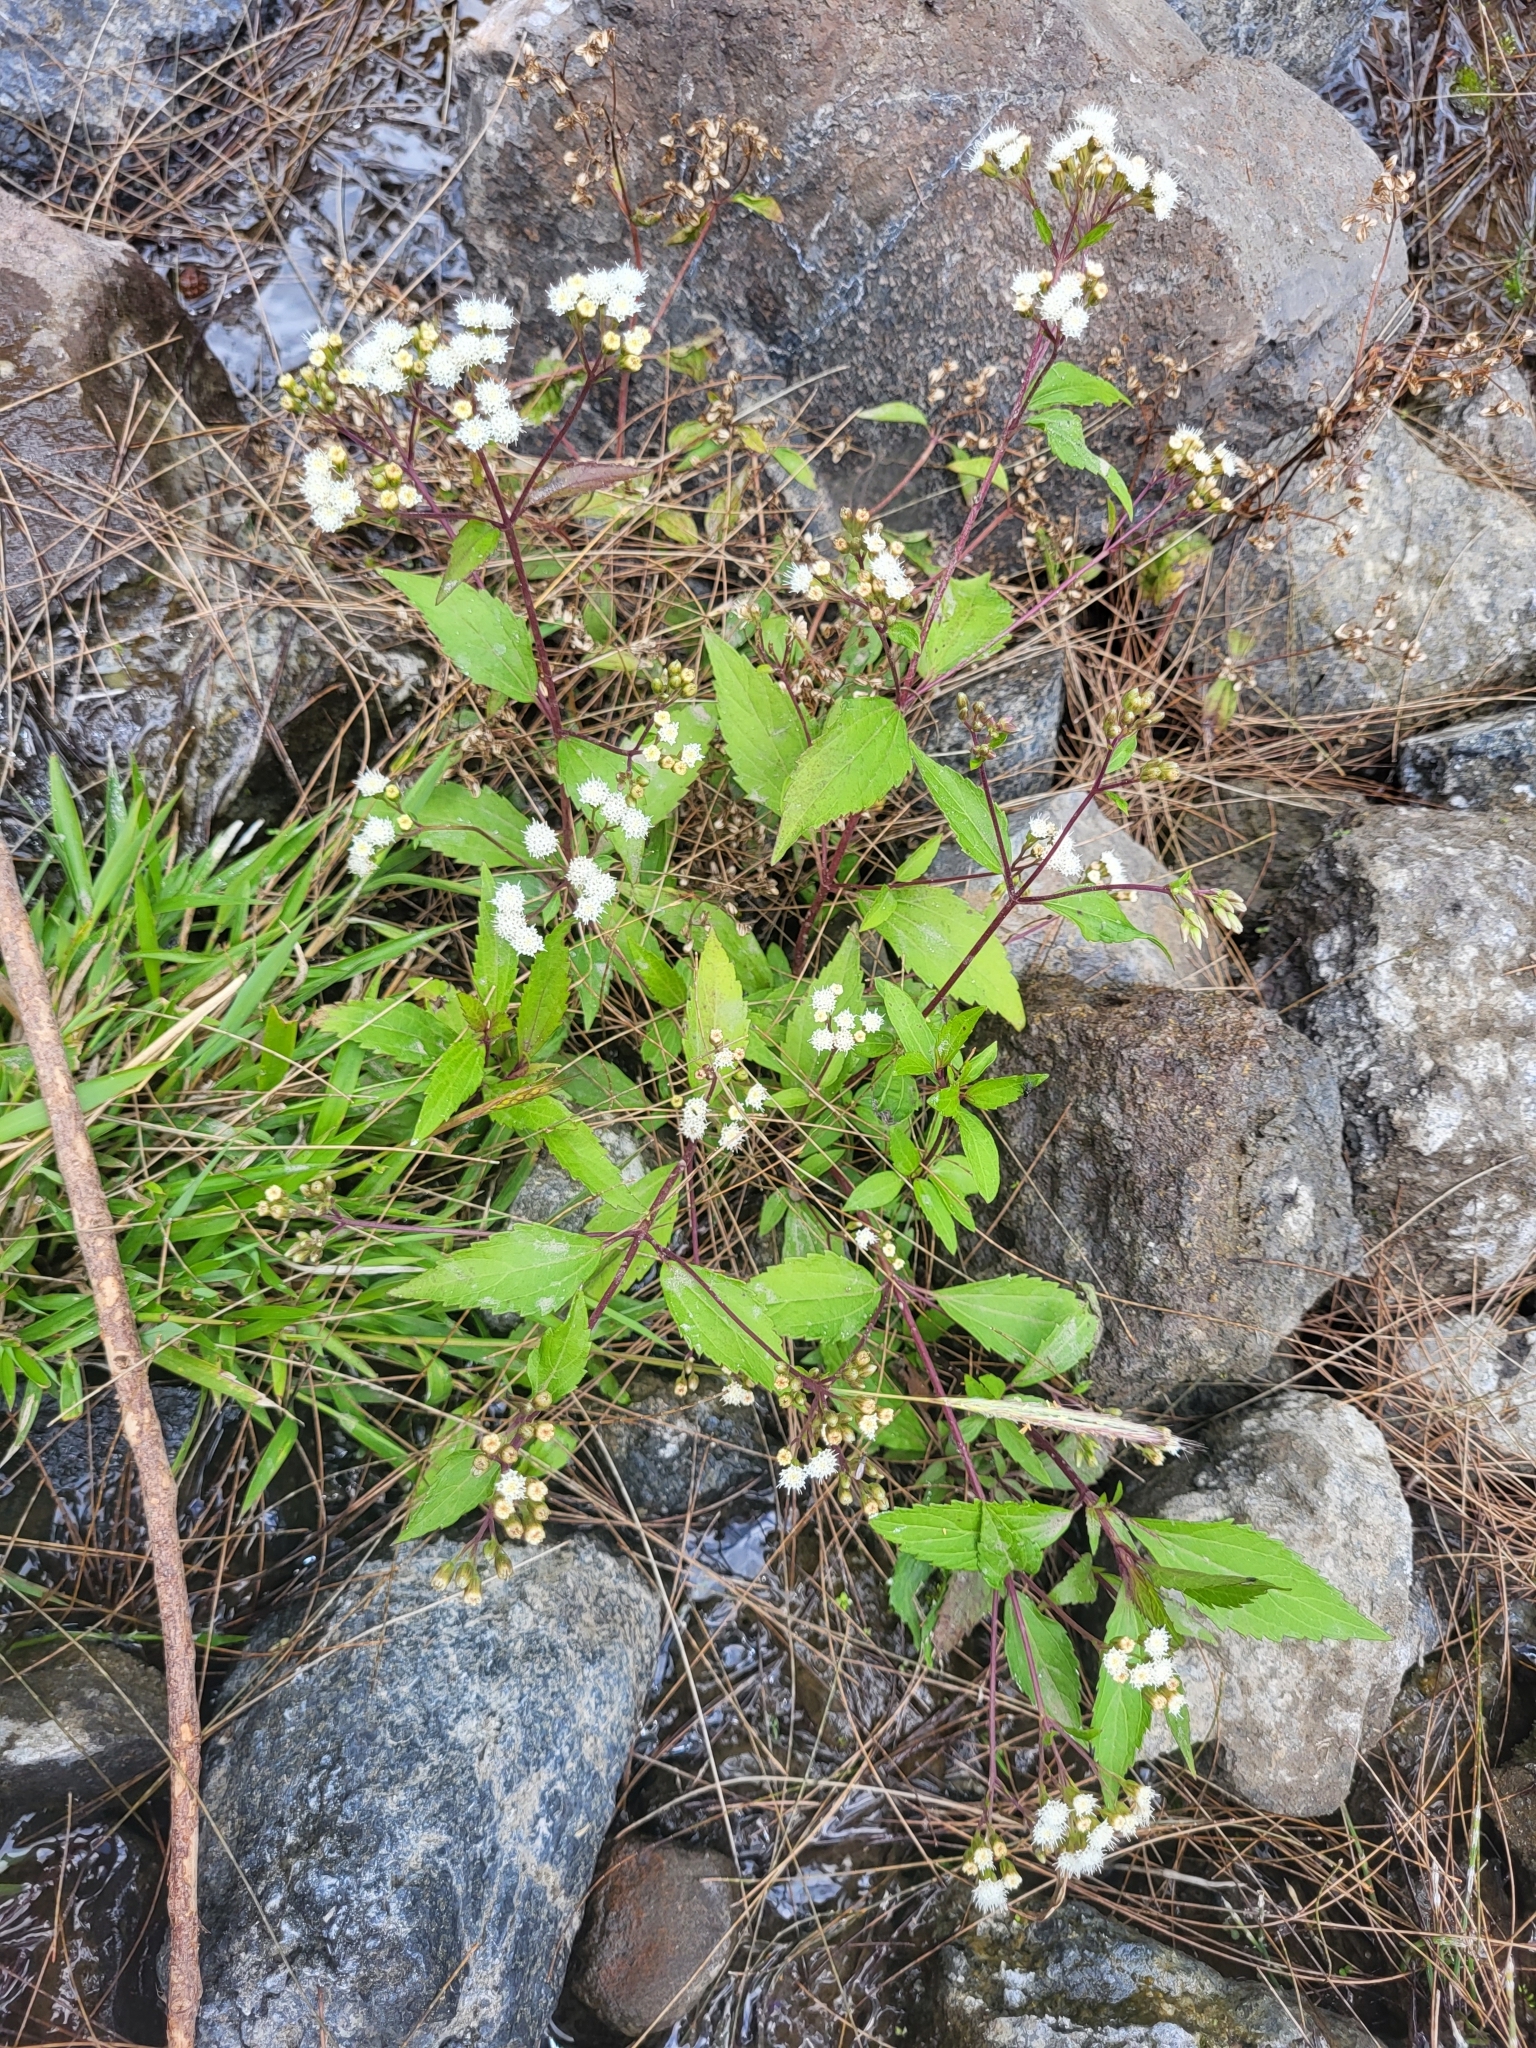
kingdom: Plantae
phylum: Tracheophyta
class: Magnoliopsida
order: Asterales
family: Asteraceae
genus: Ageratina
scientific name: Ageratina riparia
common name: Creeping croftonweed
